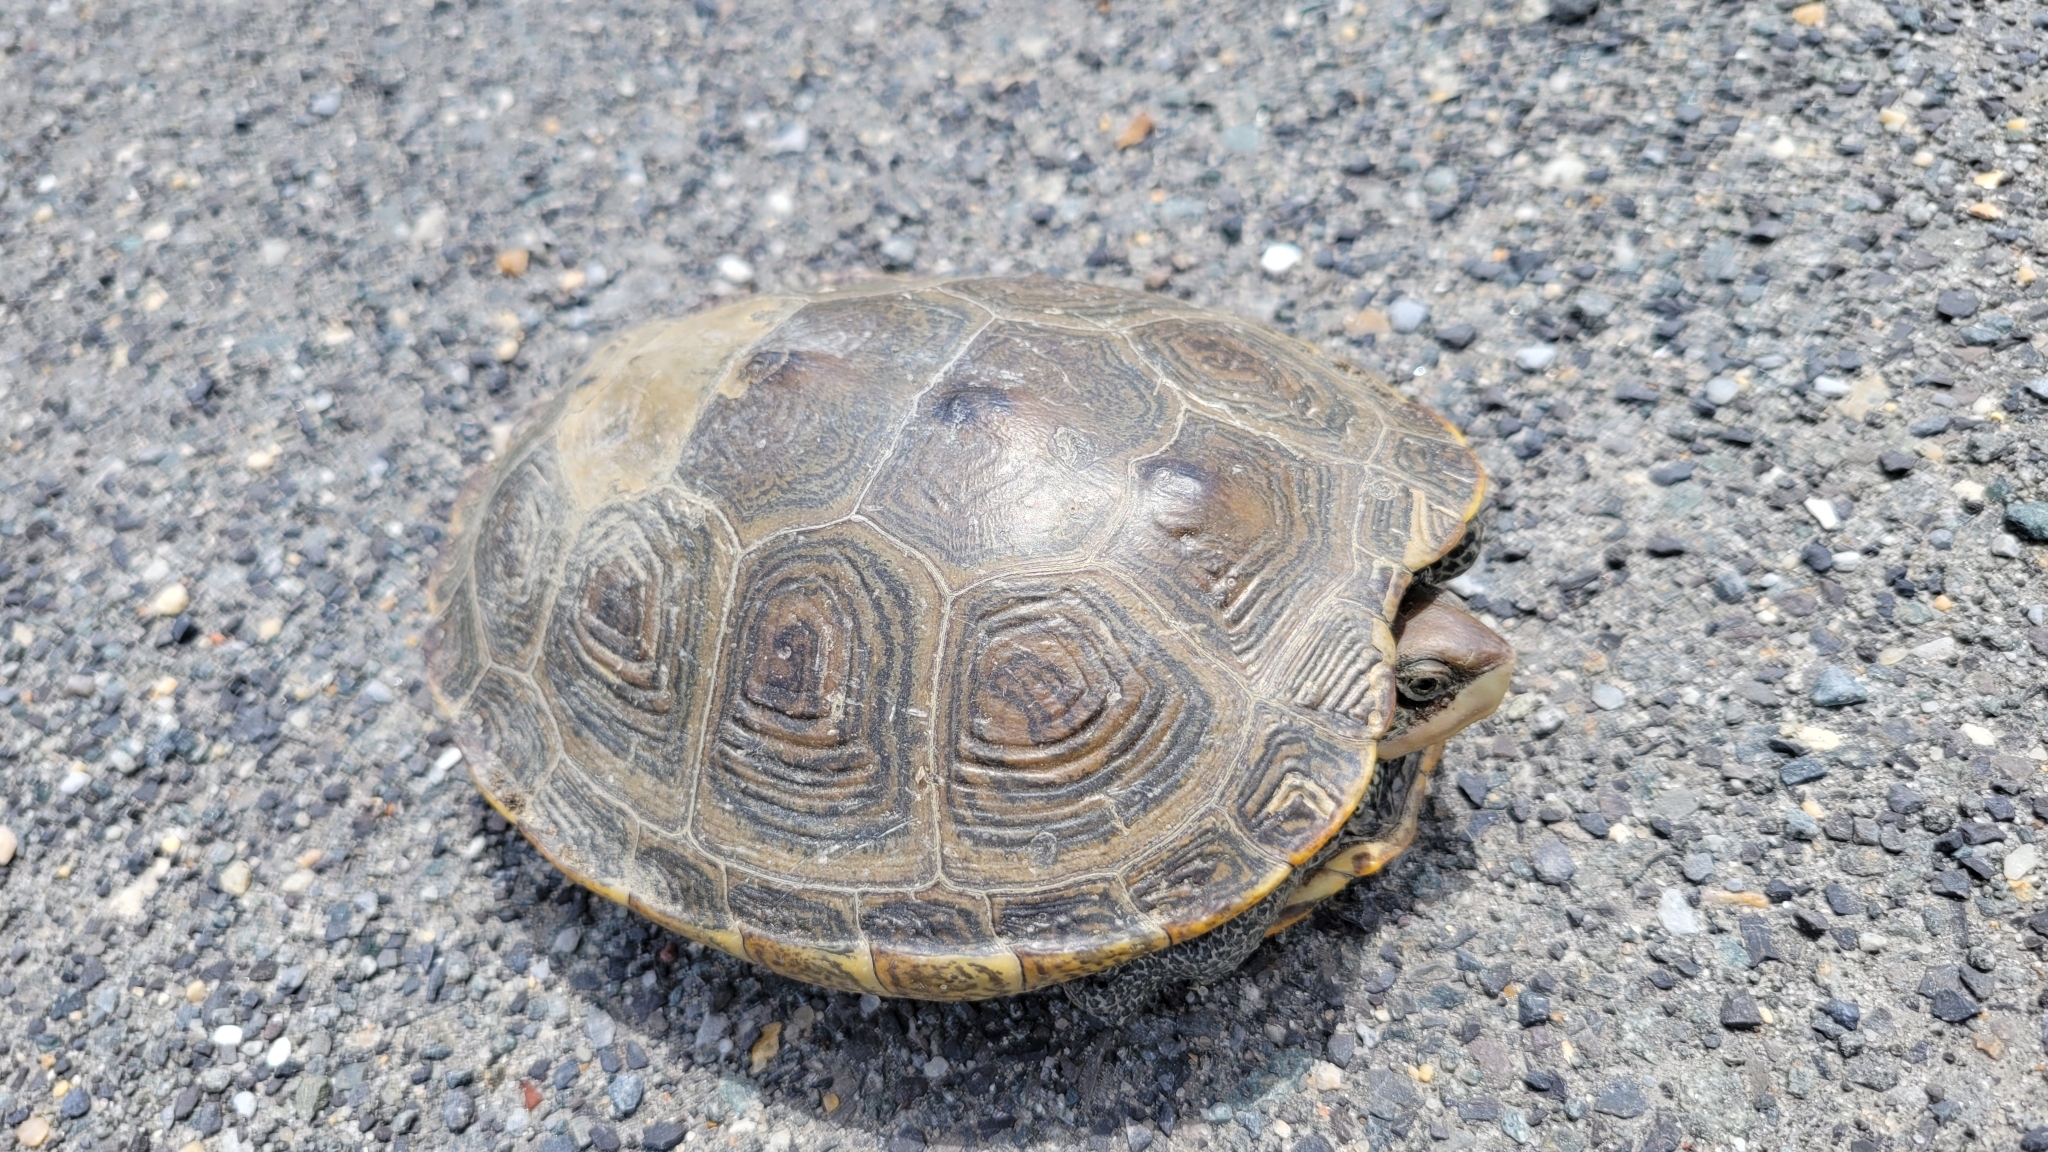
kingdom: Animalia
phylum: Chordata
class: Testudines
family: Emydidae
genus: Malaclemys
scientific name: Malaclemys terrapin
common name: Diamondback terrapin
